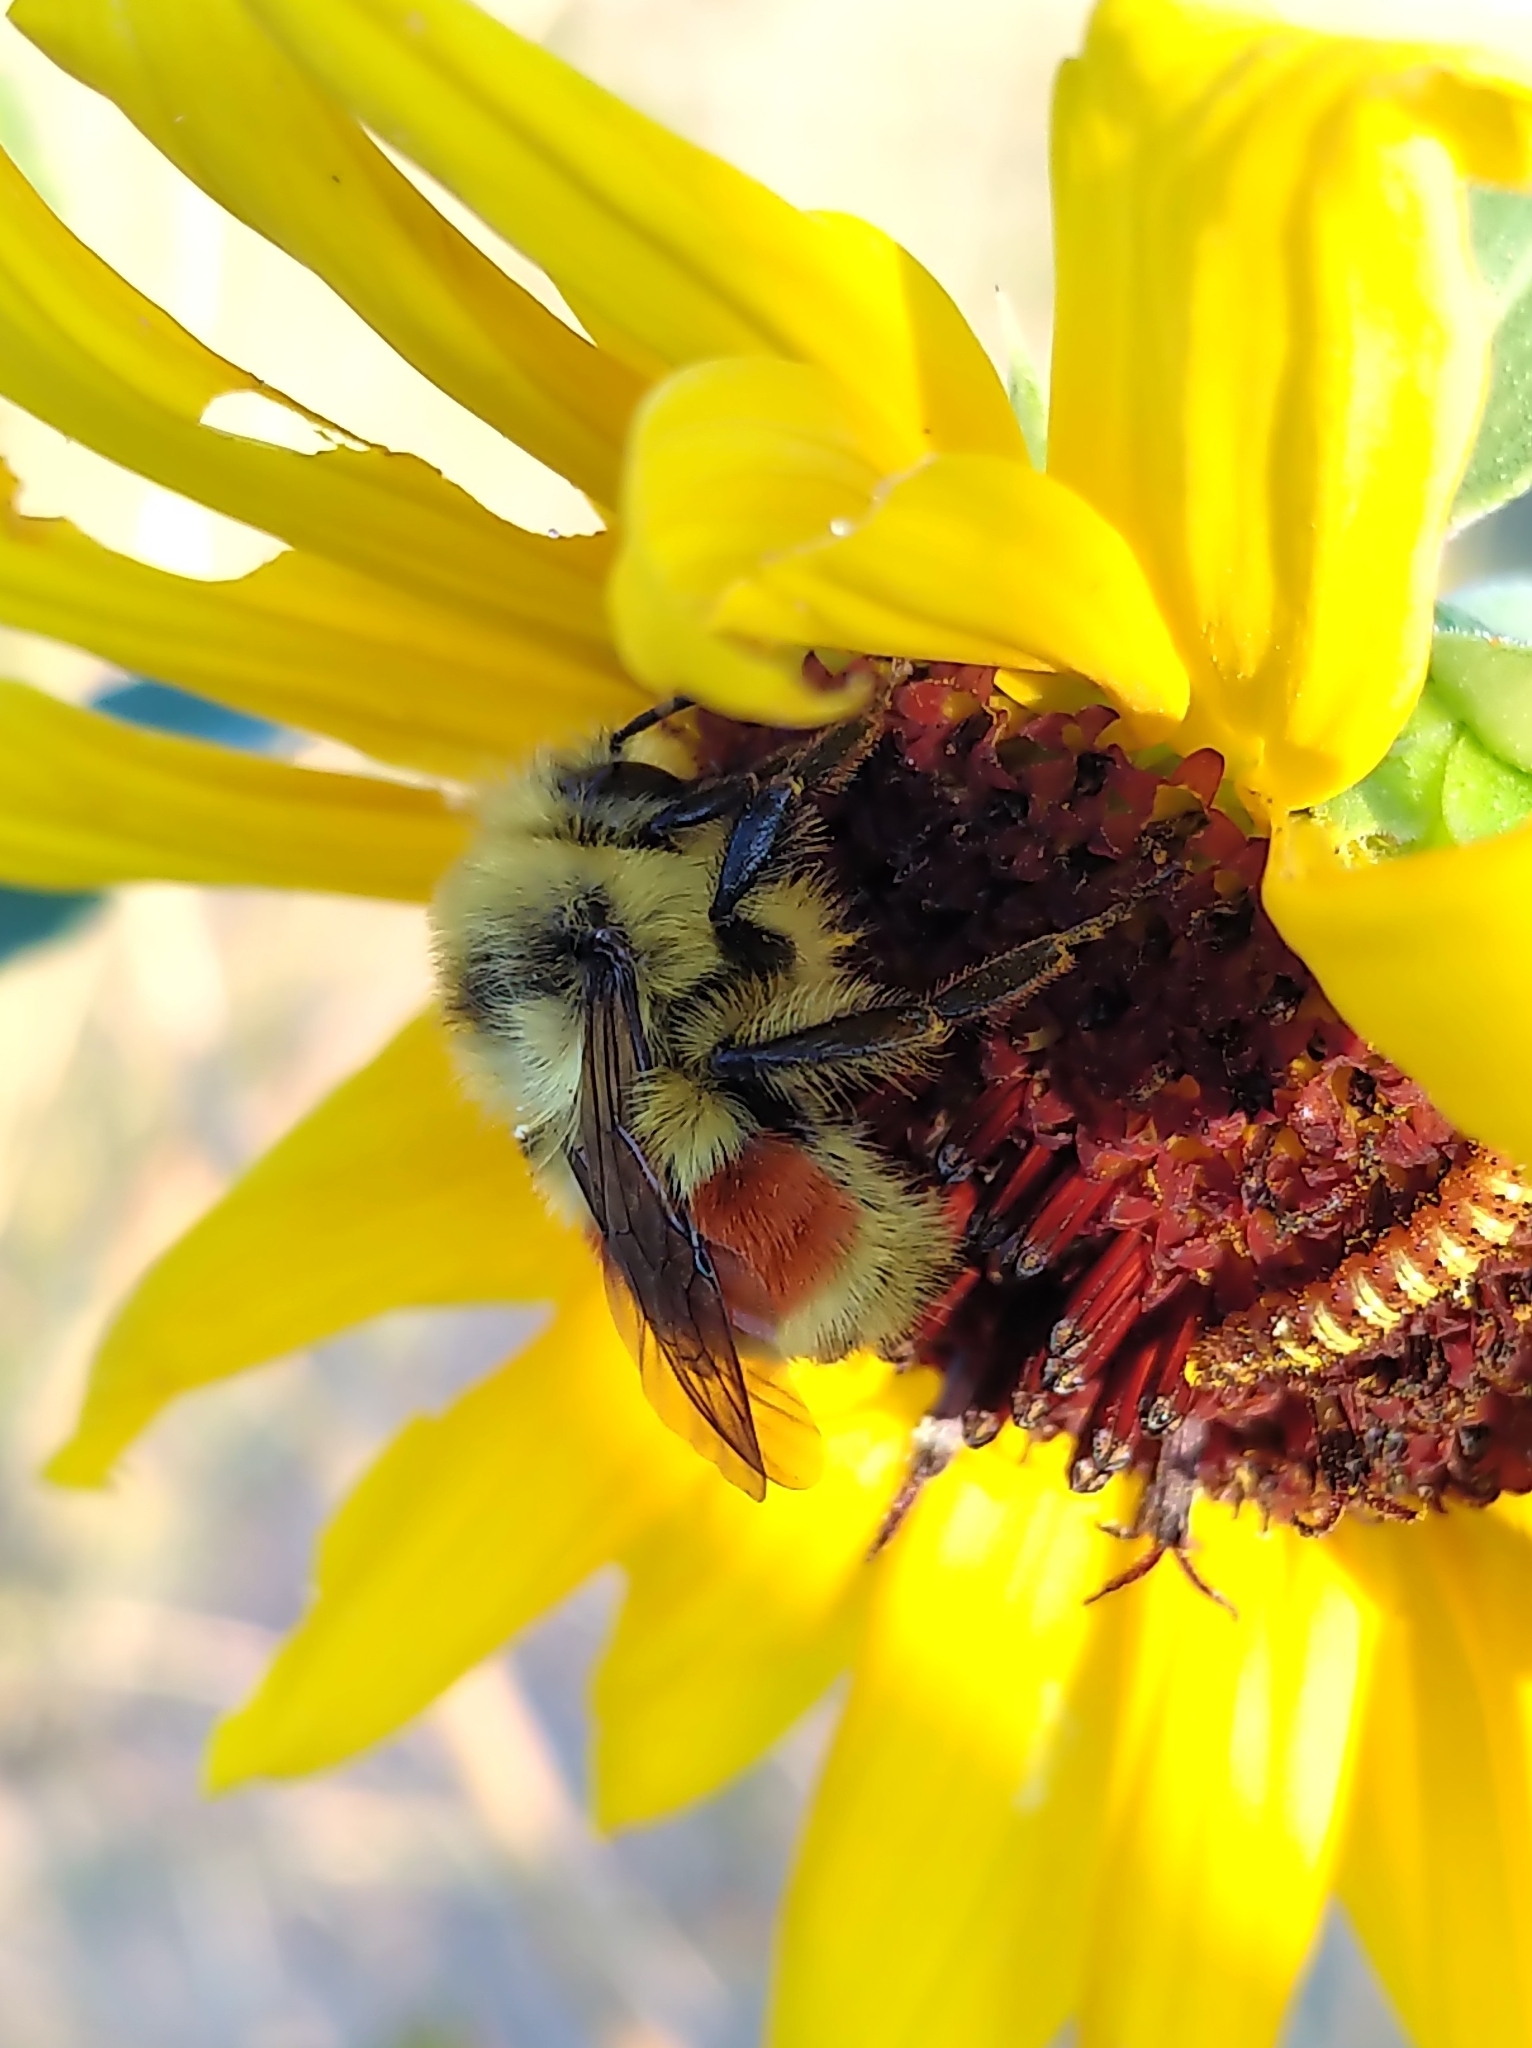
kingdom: Animalia
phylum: Arthropoda
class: Insecta
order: Hymenoptera
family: Apidae
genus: Bombus
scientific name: Bombus huntii
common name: Hunt bumble bee
